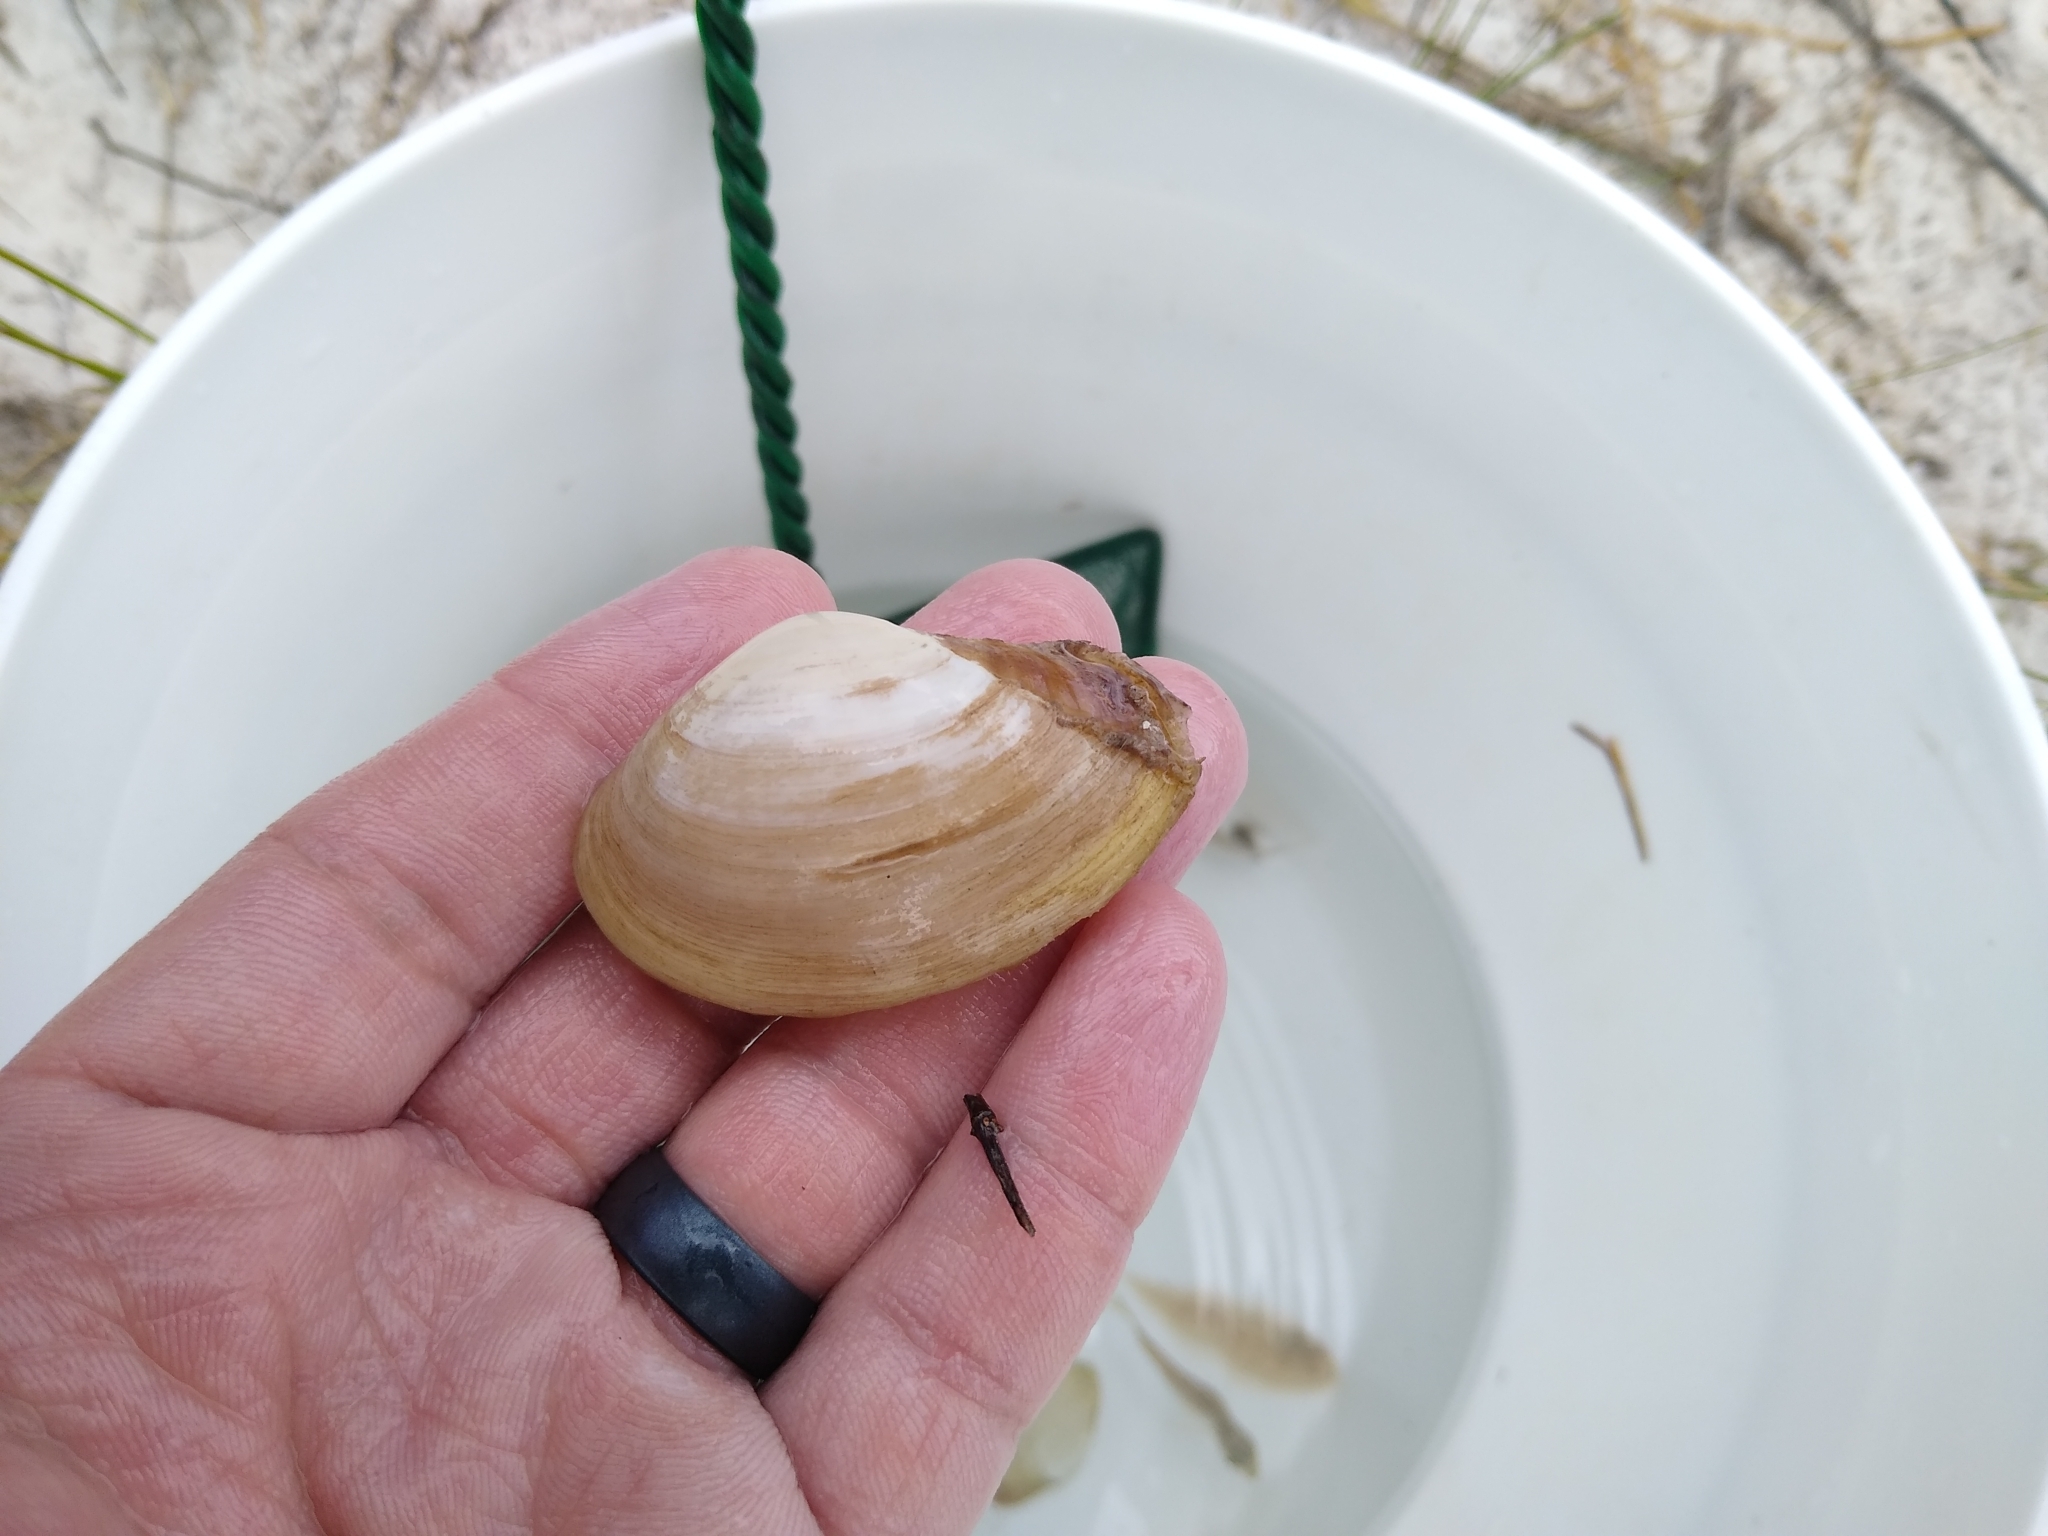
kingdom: Animalia
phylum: Mollusca
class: Bivalvia
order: Venerida
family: Mactridae
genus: Mactrotoma
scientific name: Mactrotoma fragilis
